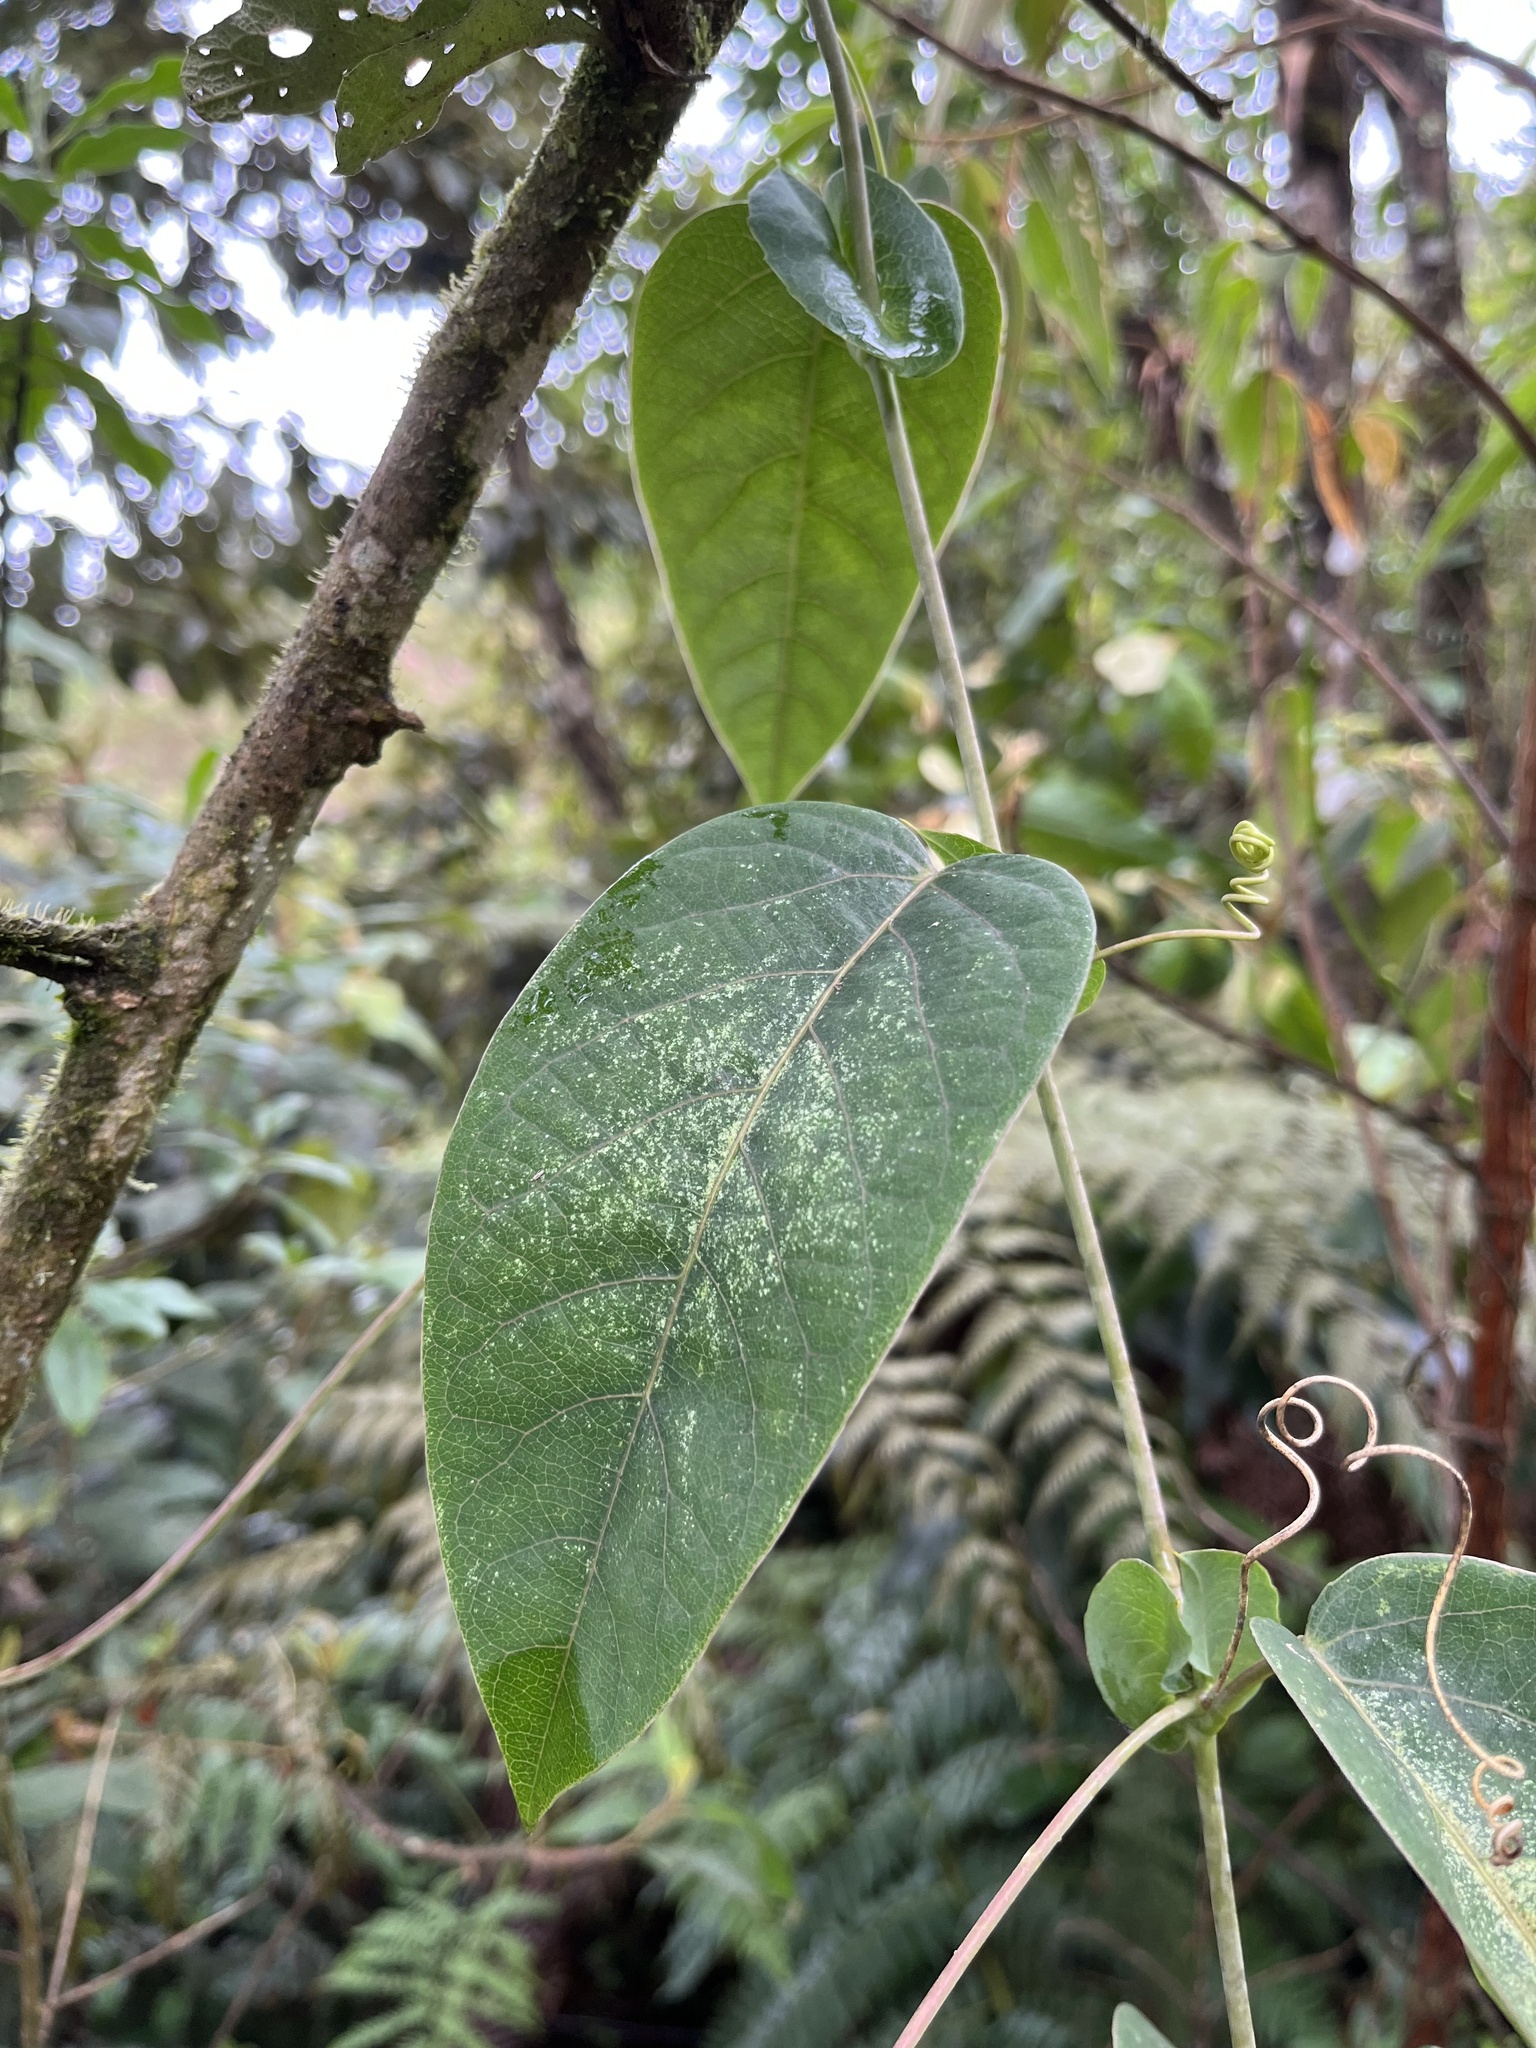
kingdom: Plantae
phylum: Tracheophyta
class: Magnoliopsida
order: Malpighiales
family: Passifloraceae
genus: Passiflora
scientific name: Passiflora longipes
